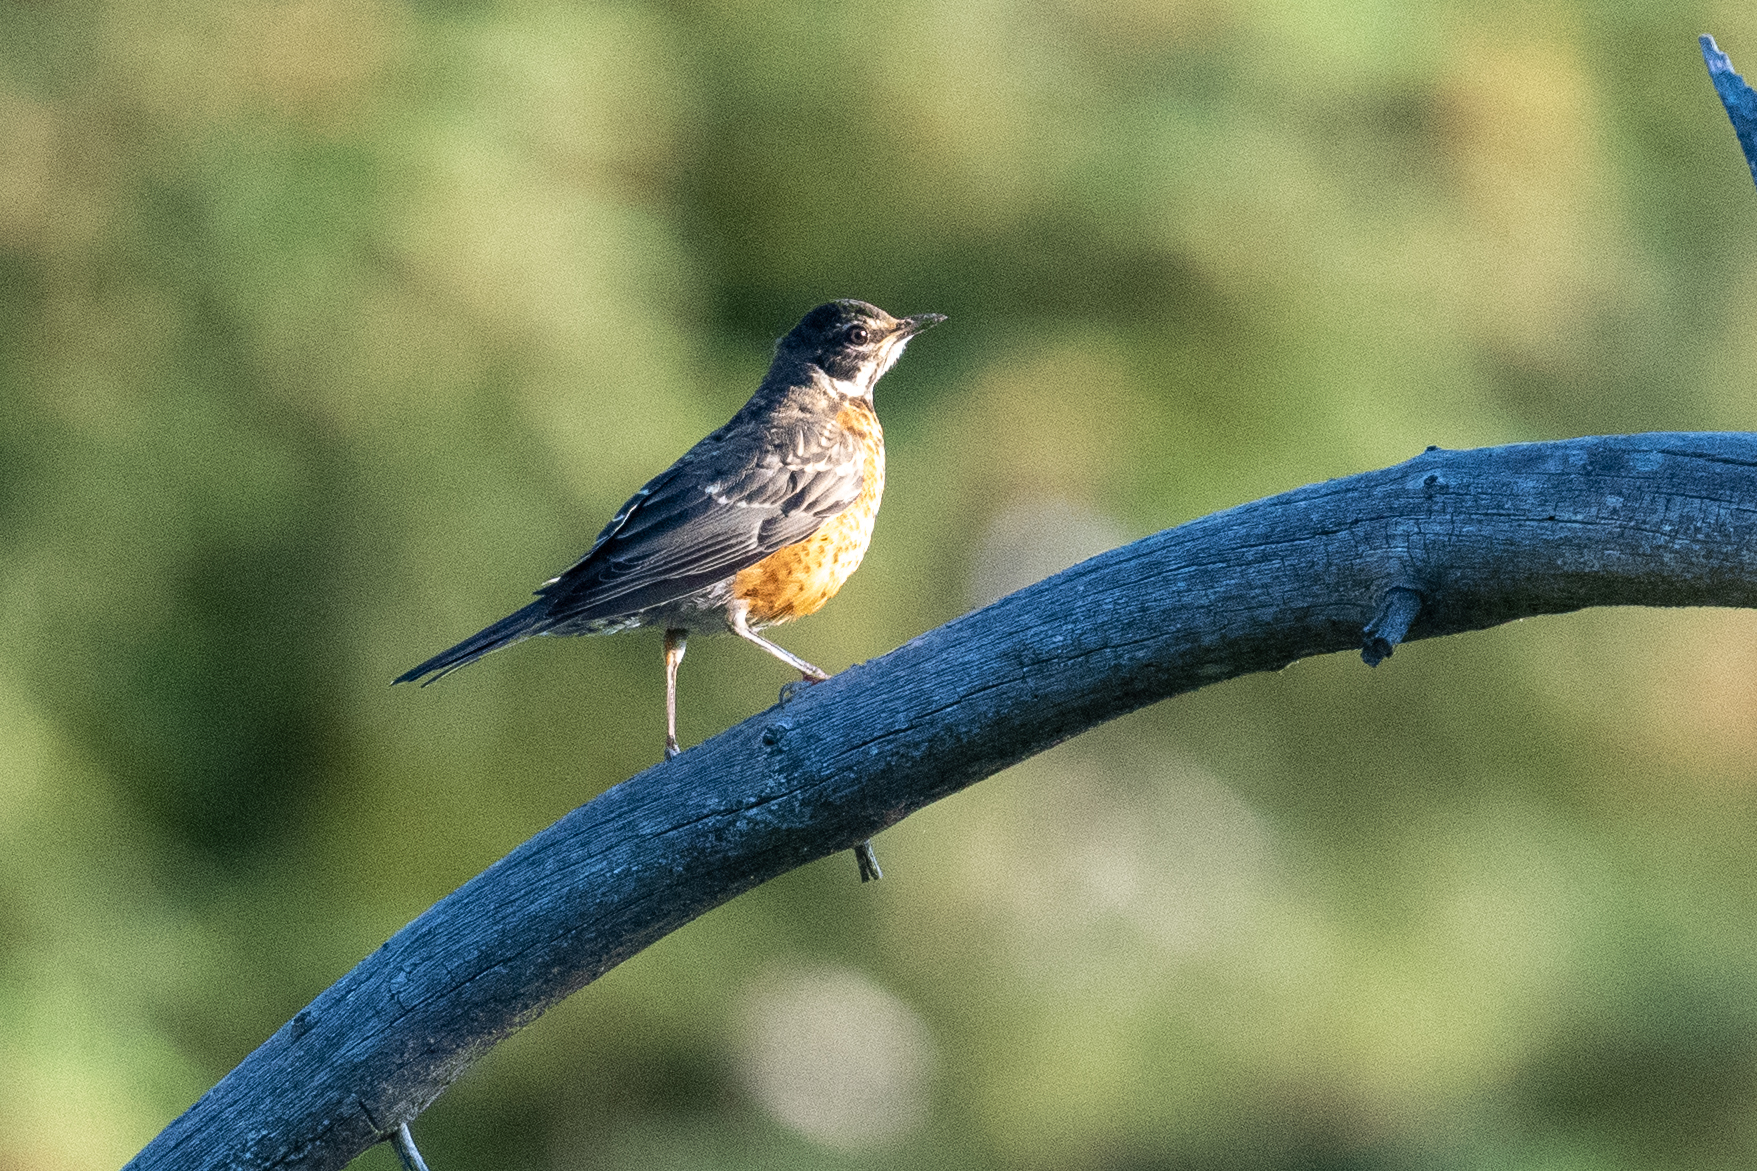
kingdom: Animalia
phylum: Chordata
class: Aves
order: Passeriformes
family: Turdidae
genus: Turdus
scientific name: Turdus migratorius
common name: American robin
